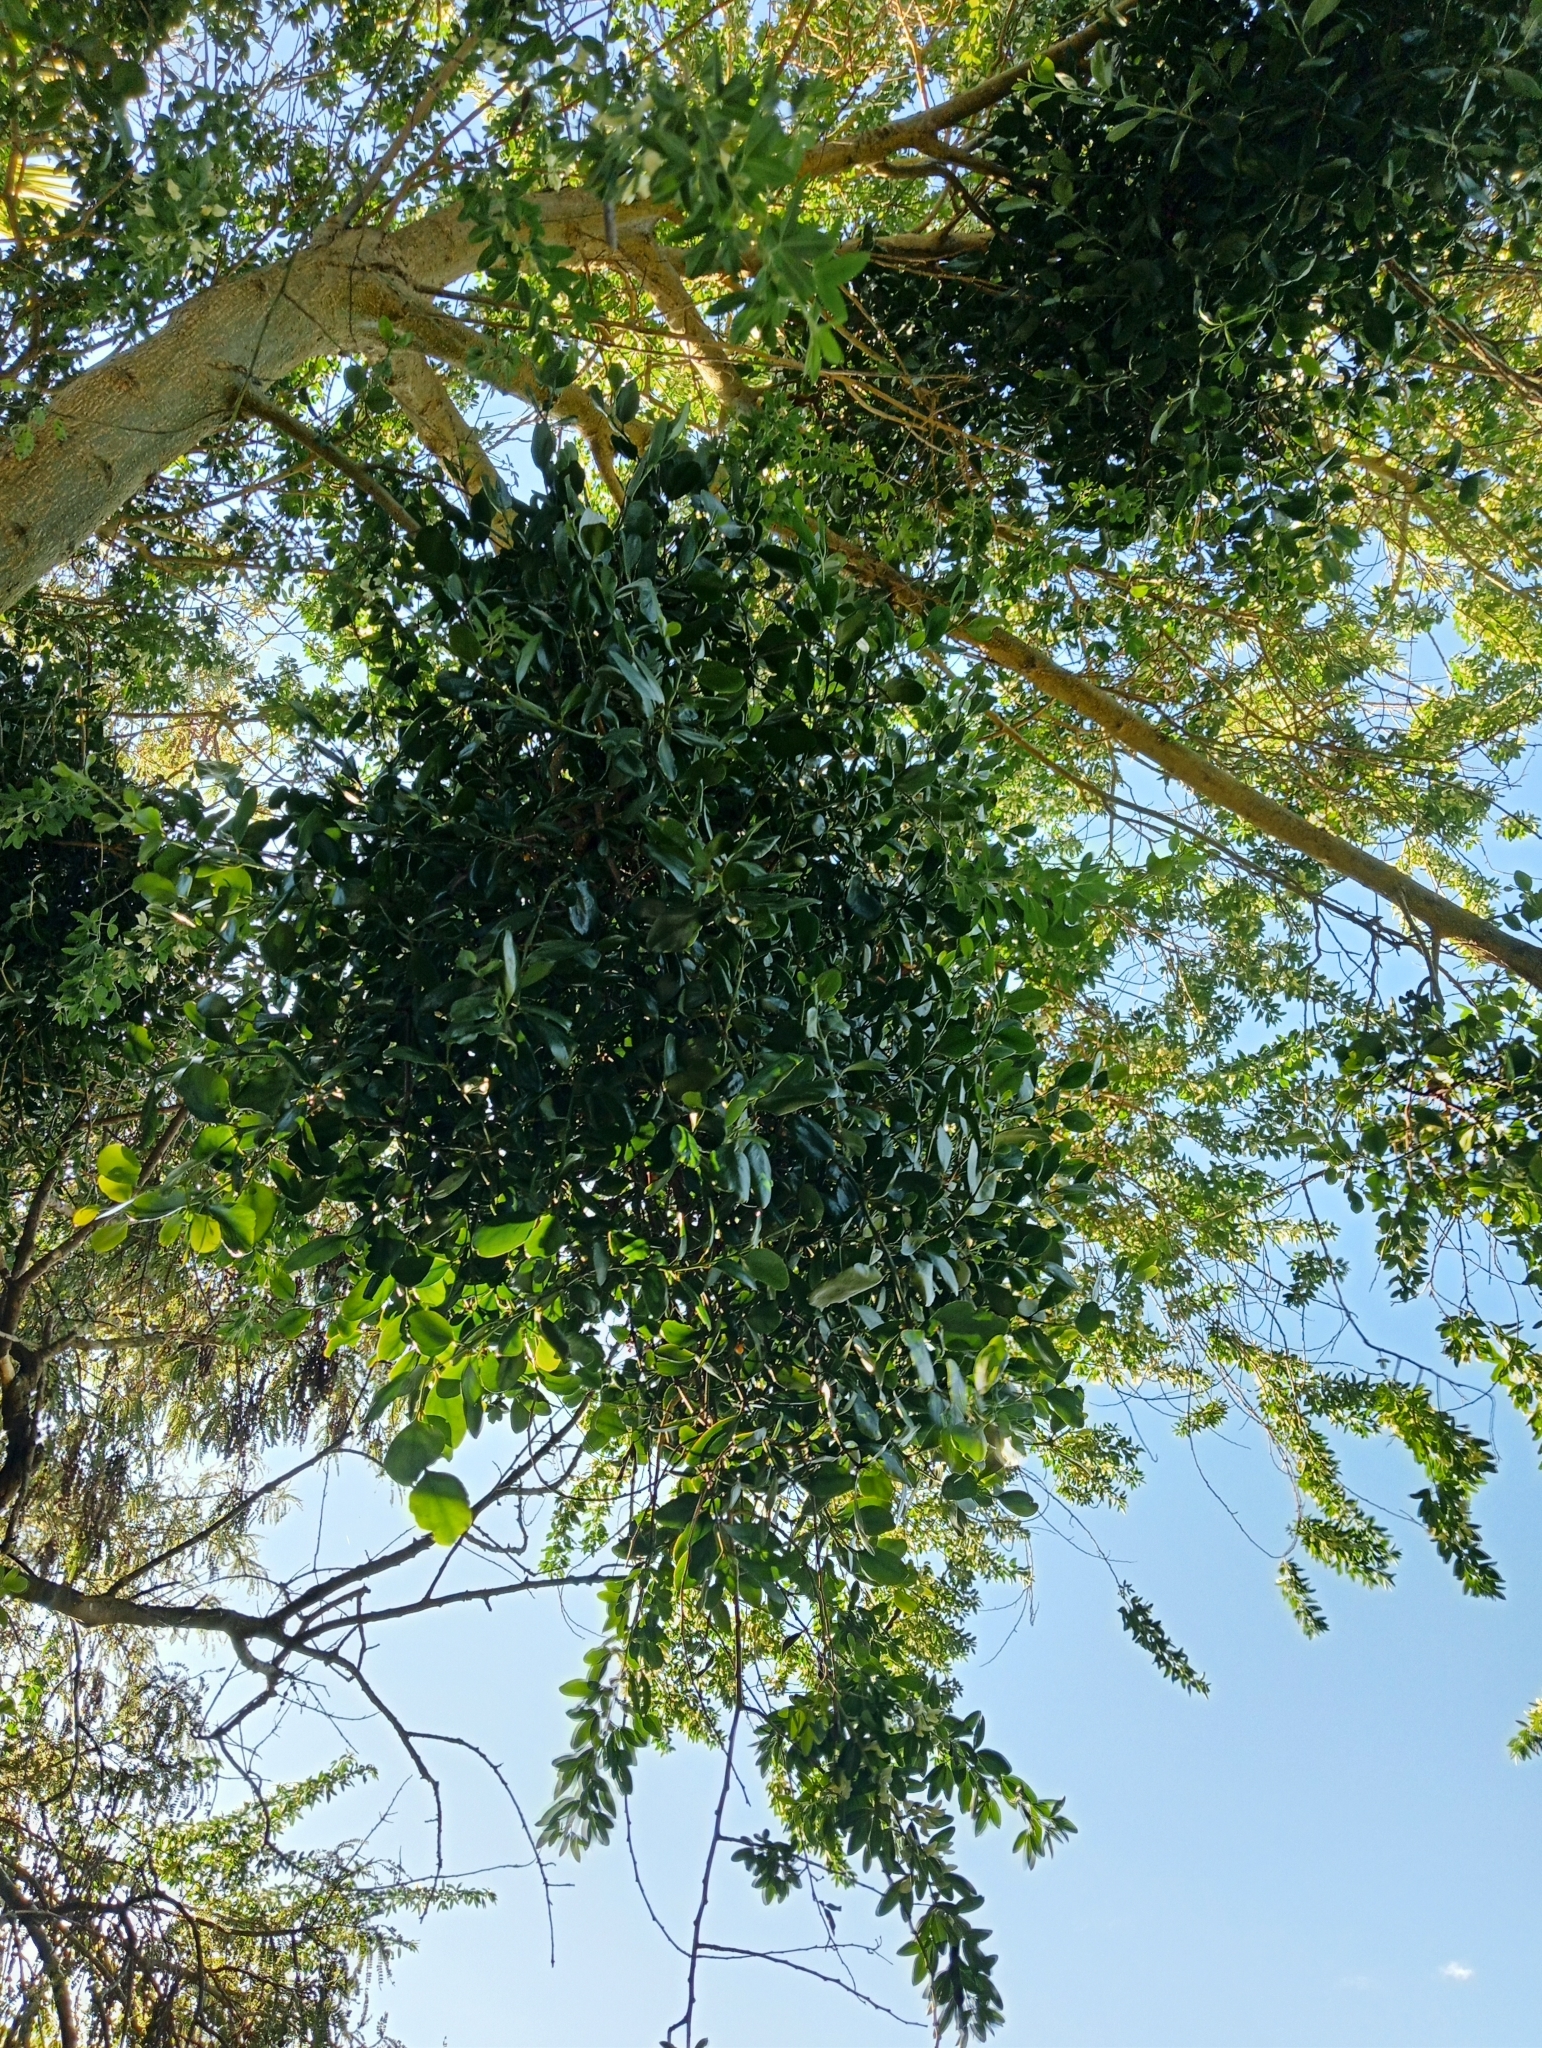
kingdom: Plantae
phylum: Tracheophyta
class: Magnoliopsida
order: Santalales
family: Loranthaceae
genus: Ileostylus
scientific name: Ileostylus micranthus
